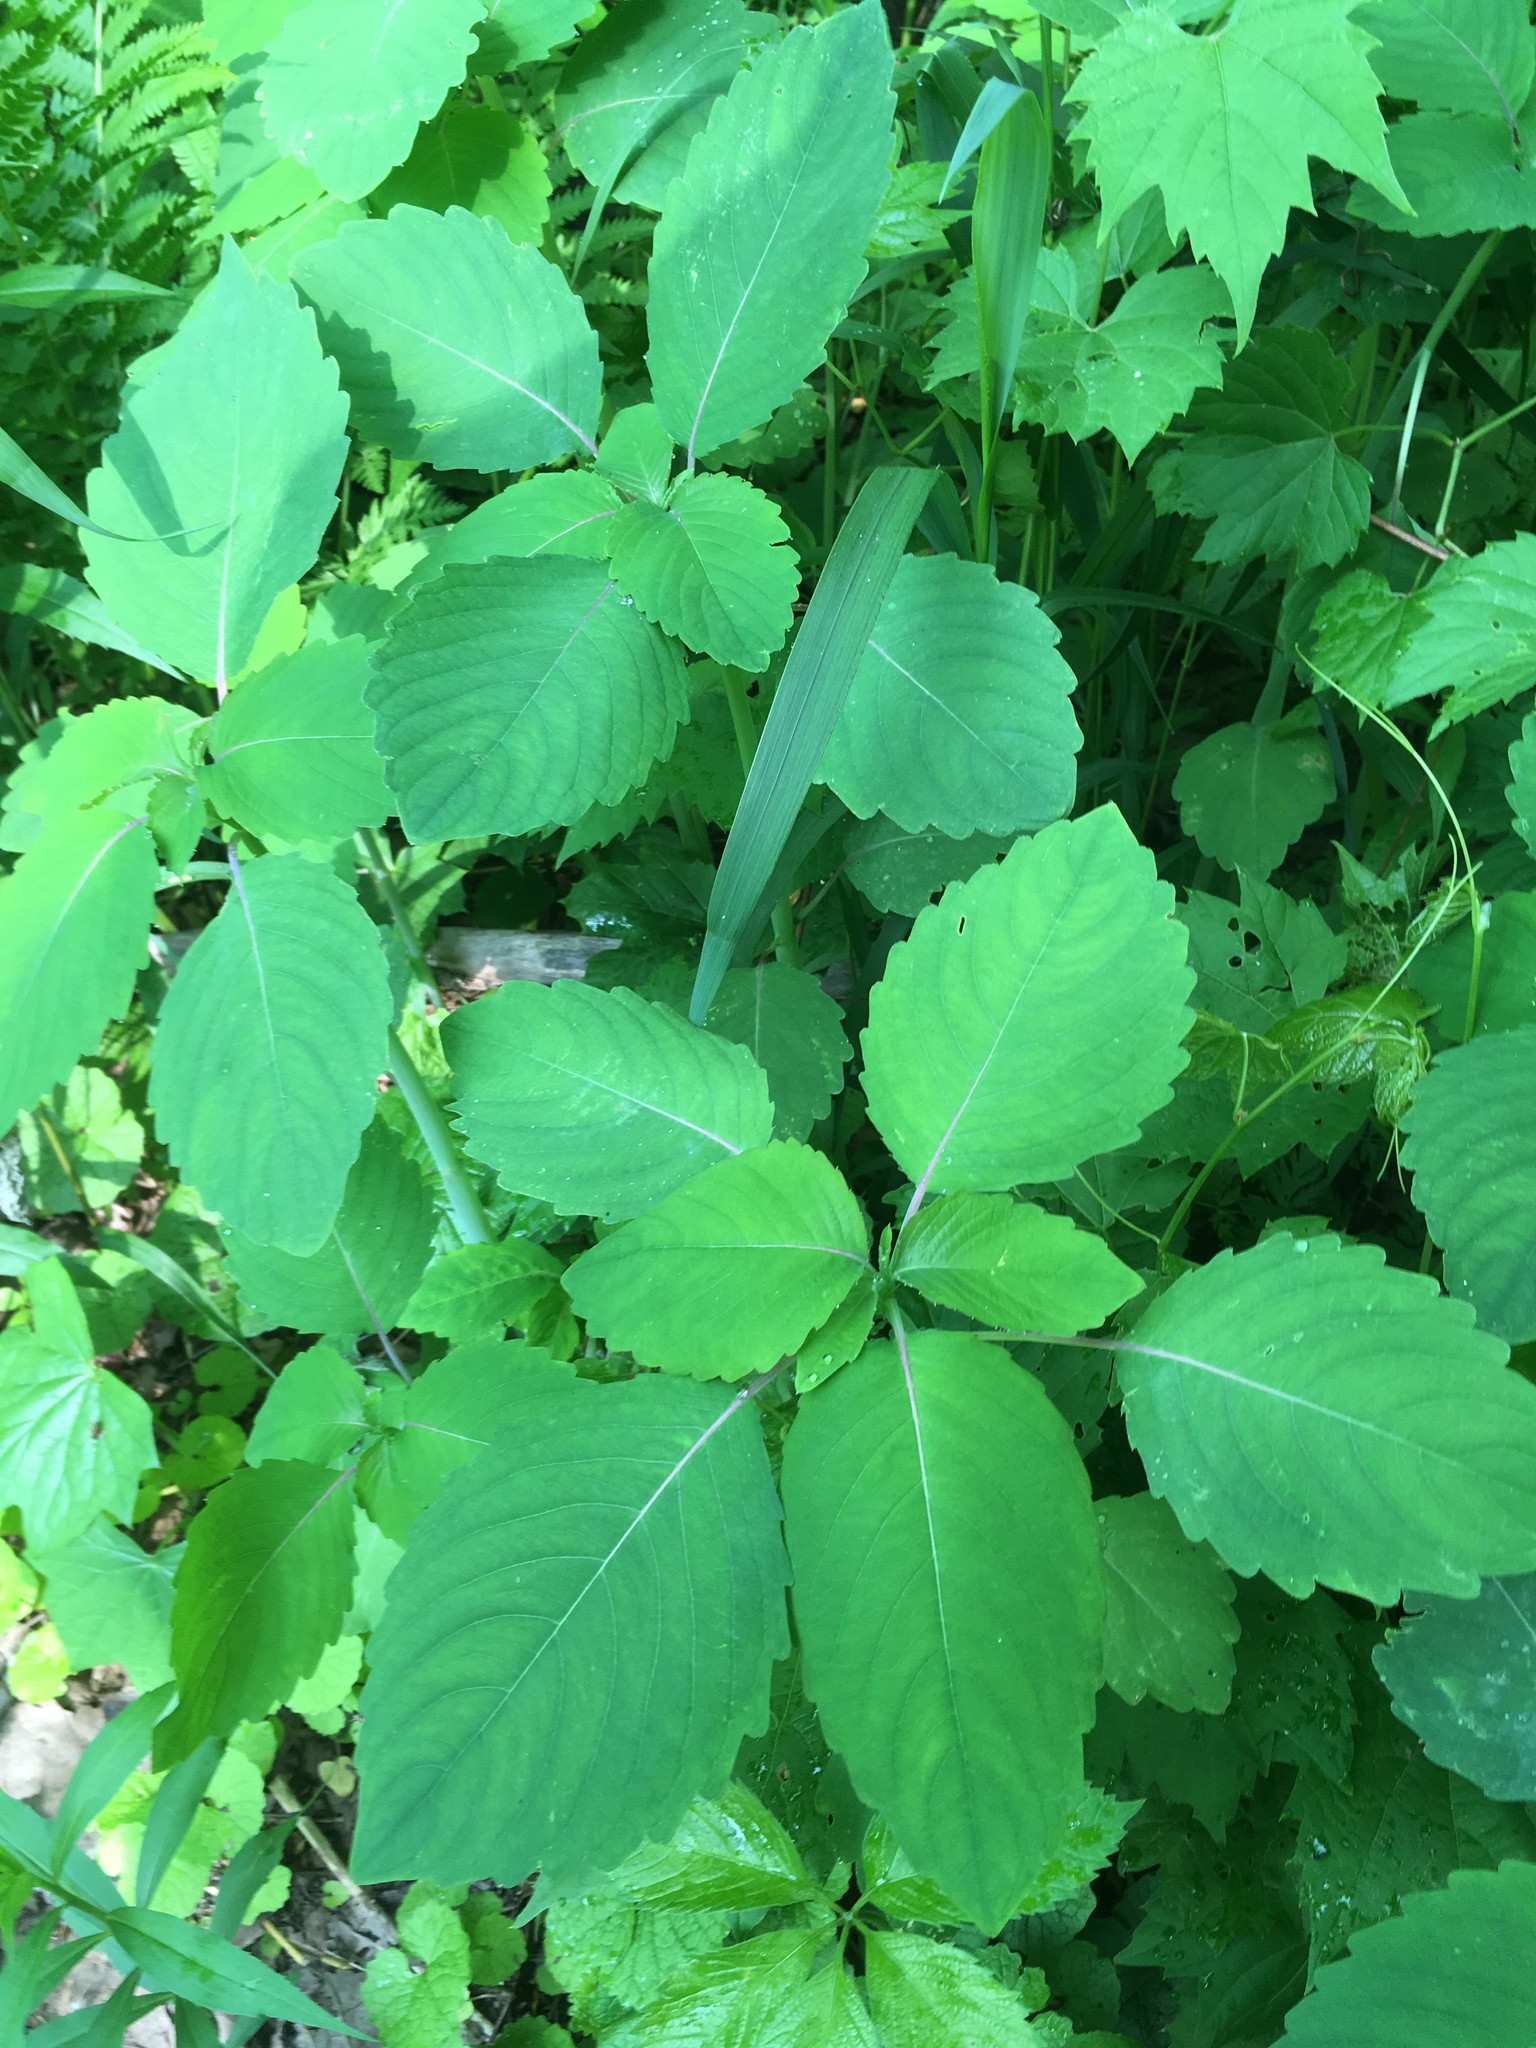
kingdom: Plantae
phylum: Tracheophyta
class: Magnoliopsida
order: Ericales
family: Balsaminaceae
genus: Impatiens
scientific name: Impatiens
